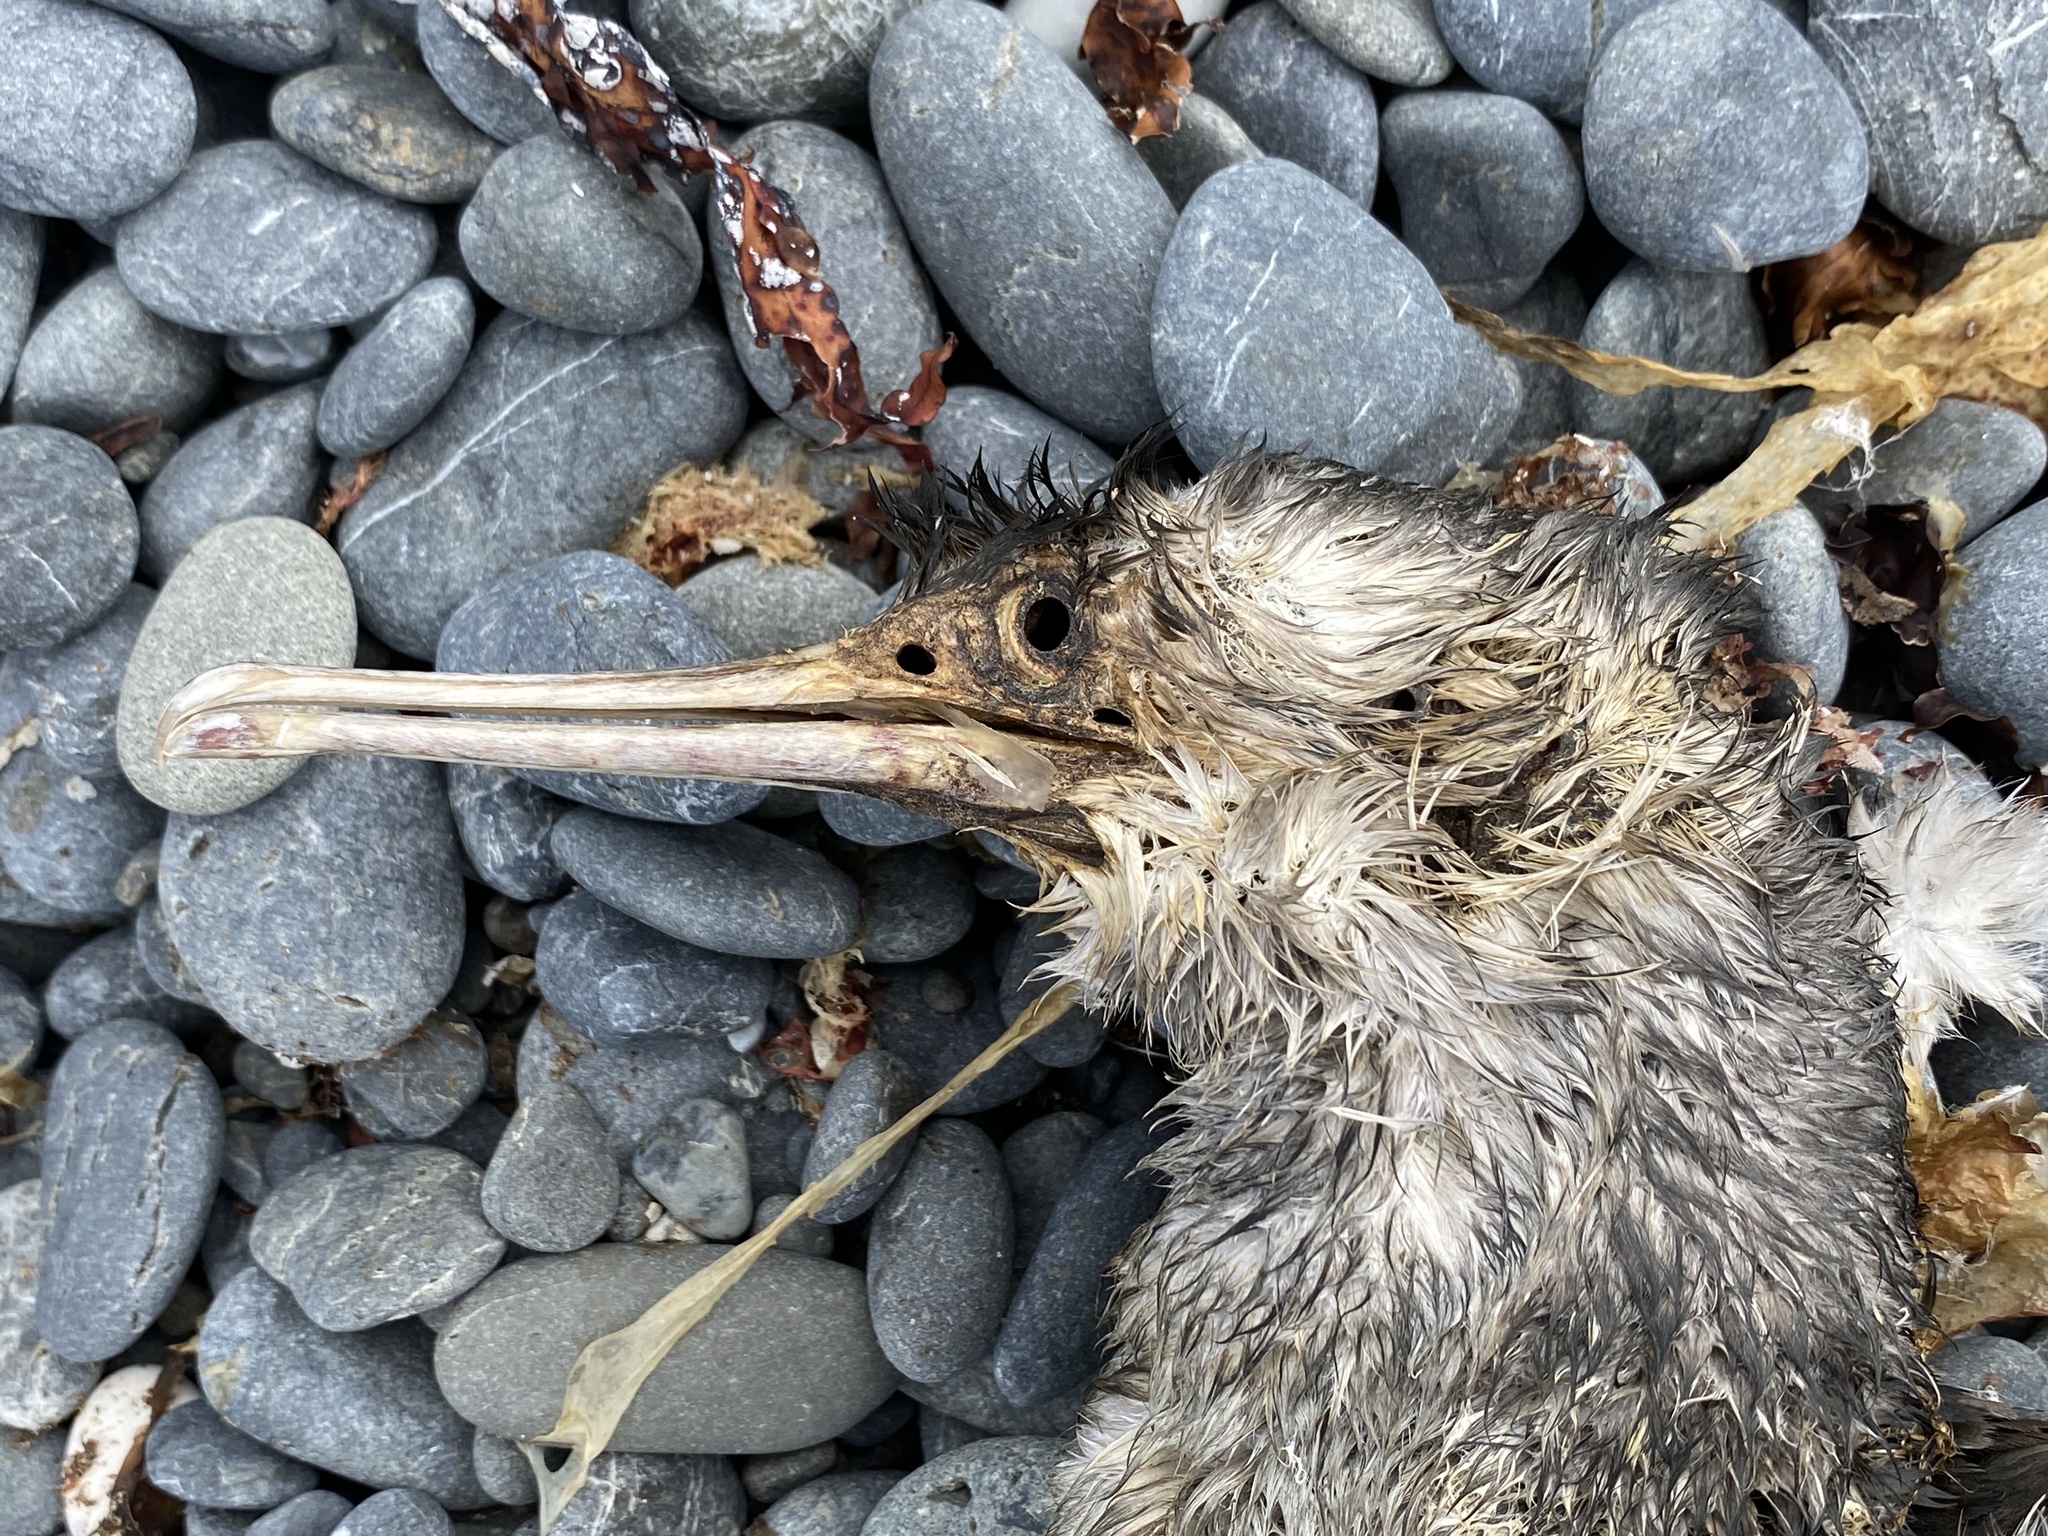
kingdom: Animalia
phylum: Chordata
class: Aves
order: Suliformes
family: Phalacrocoracidae
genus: Phalacrocorax
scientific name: Phalacrocorax punctatus
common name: Spotted shag
